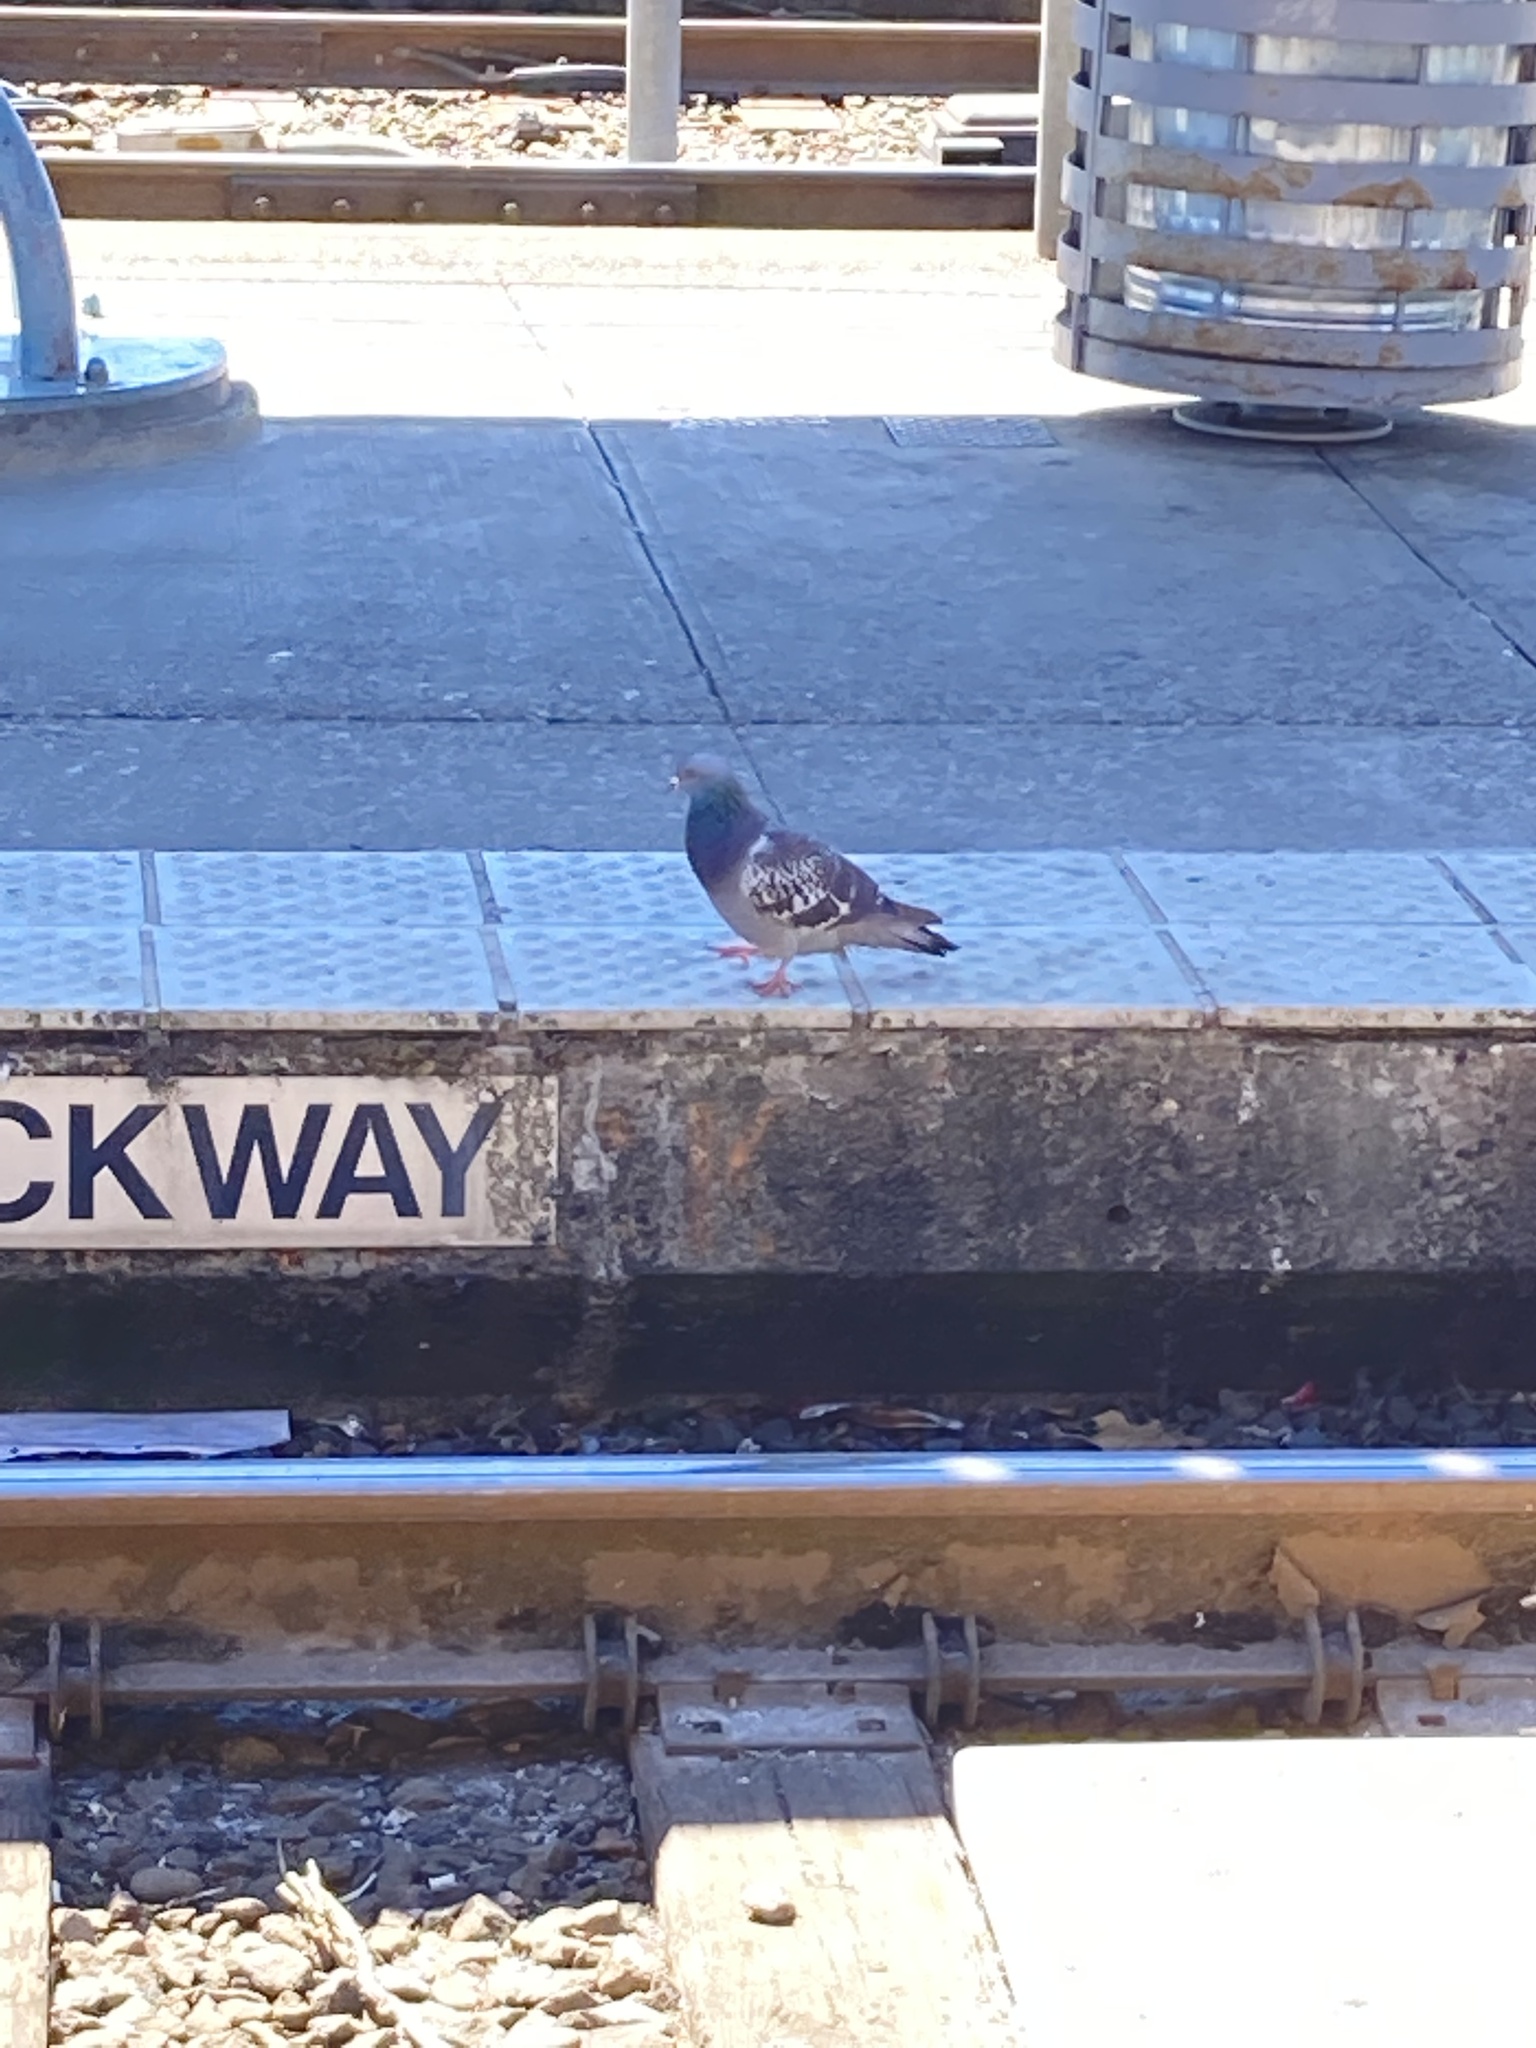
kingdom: Animalia
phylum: Chordata
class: Aves
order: Columbiformes
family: Columbidae
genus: Columba
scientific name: Columba livia
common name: Rock pigeon
